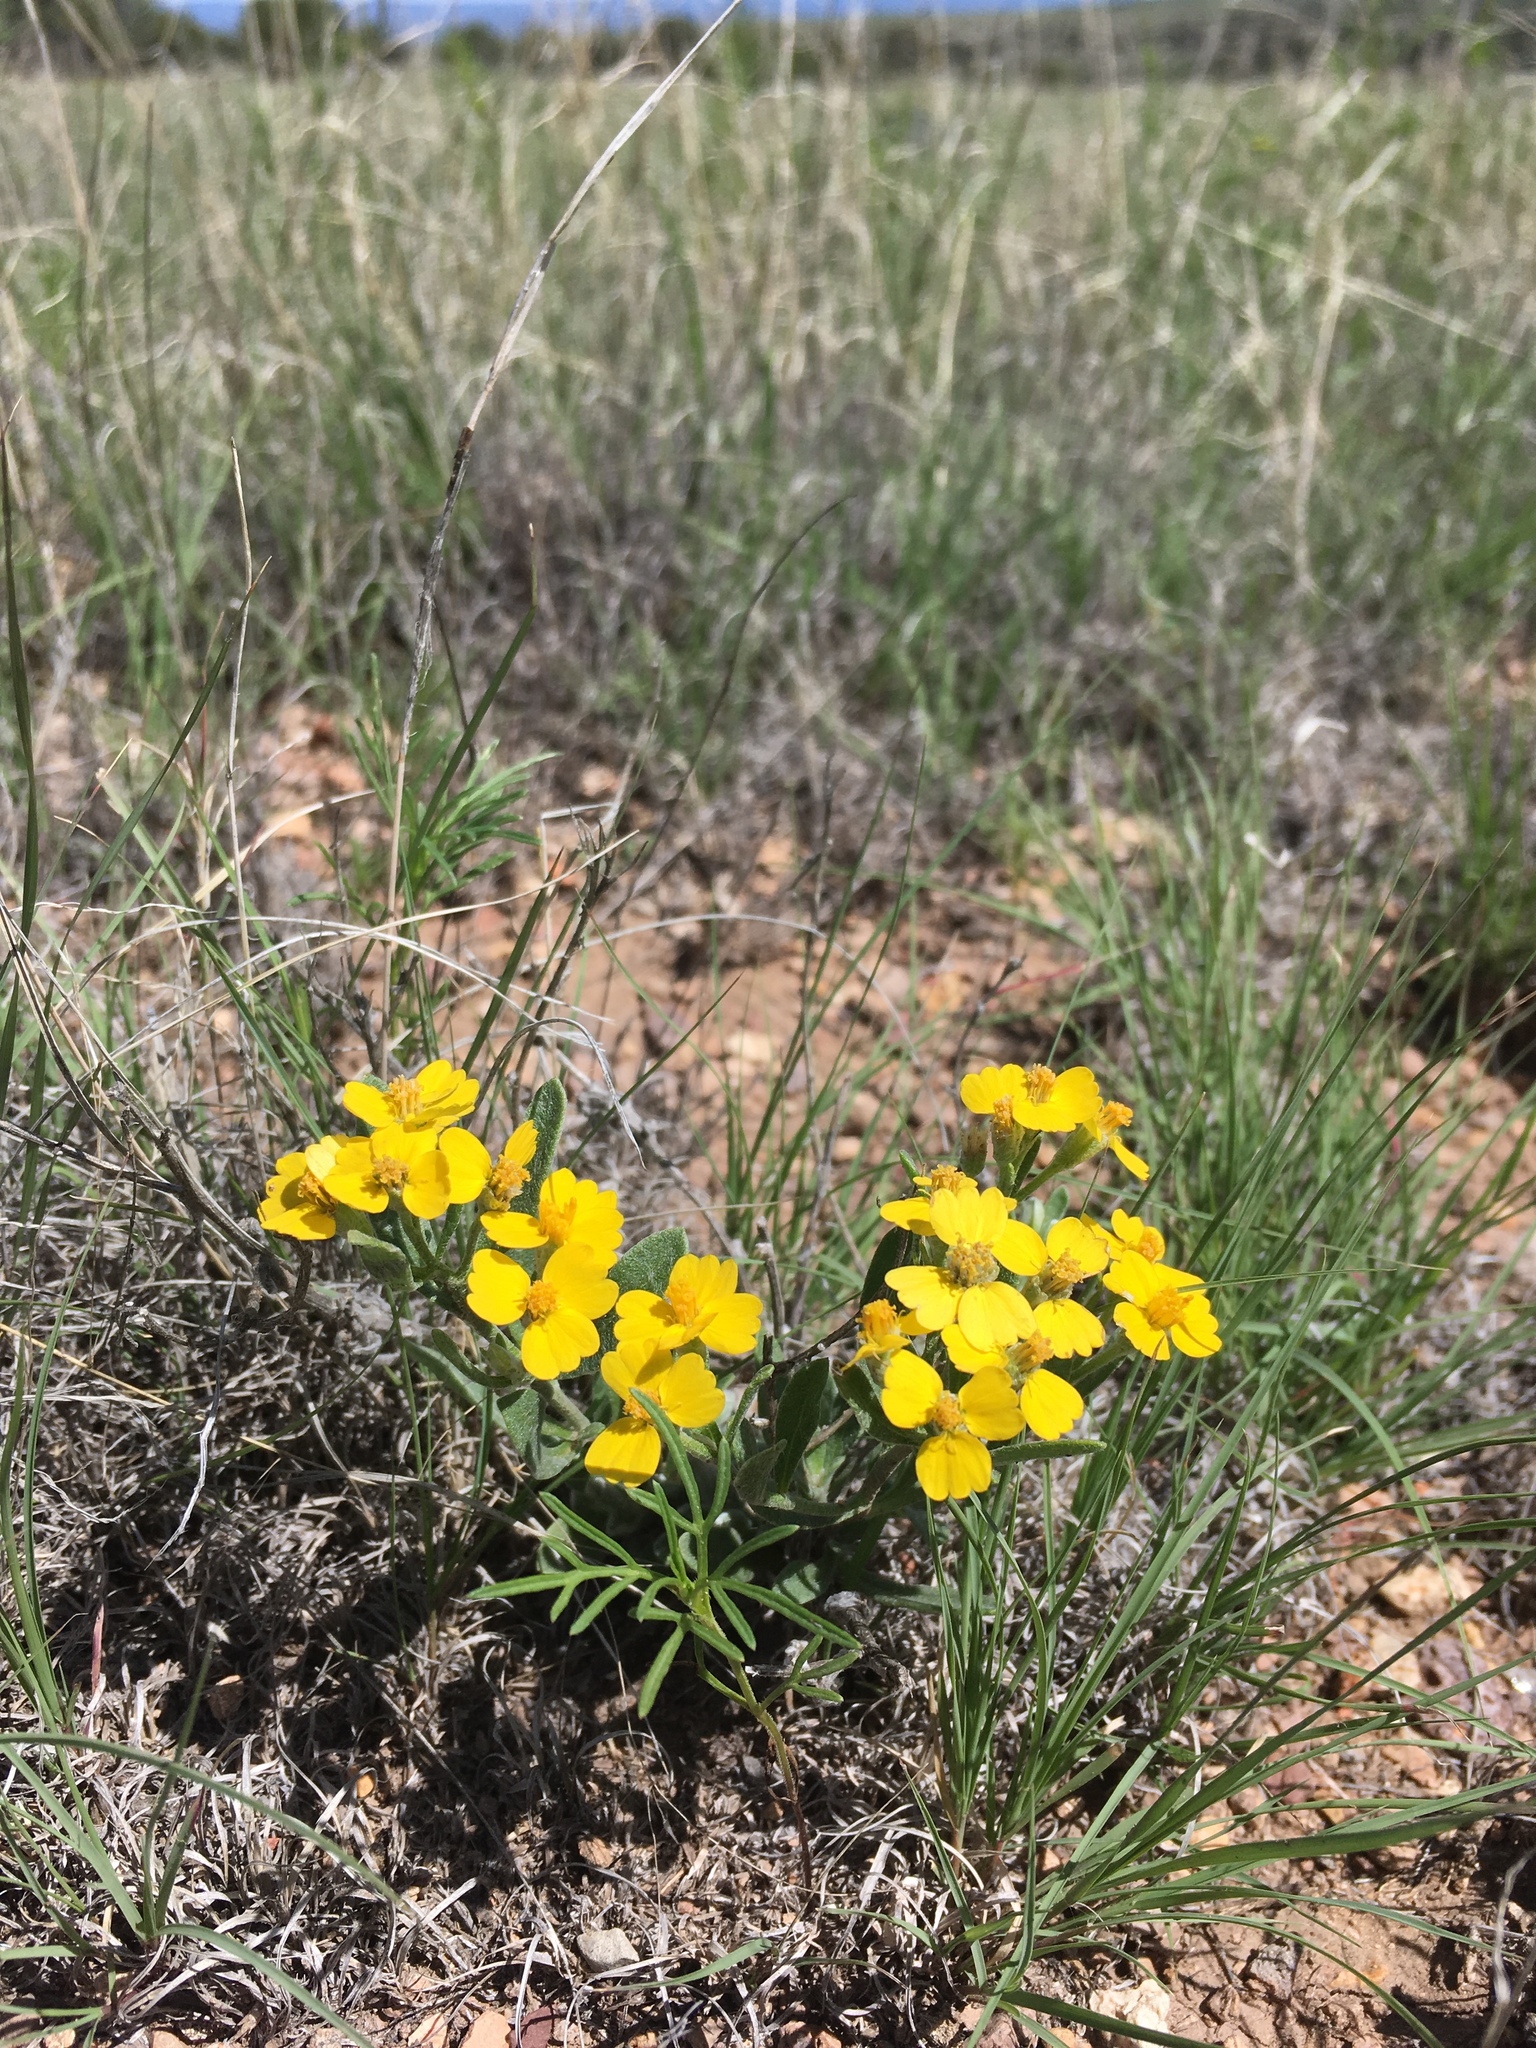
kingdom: Plantae
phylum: Tracheophyta
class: Magnoliopsida
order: Asterales
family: Asteraceae
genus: Psilostrophe
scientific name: Psilostrophe tagetina
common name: Marigold paper-flower
